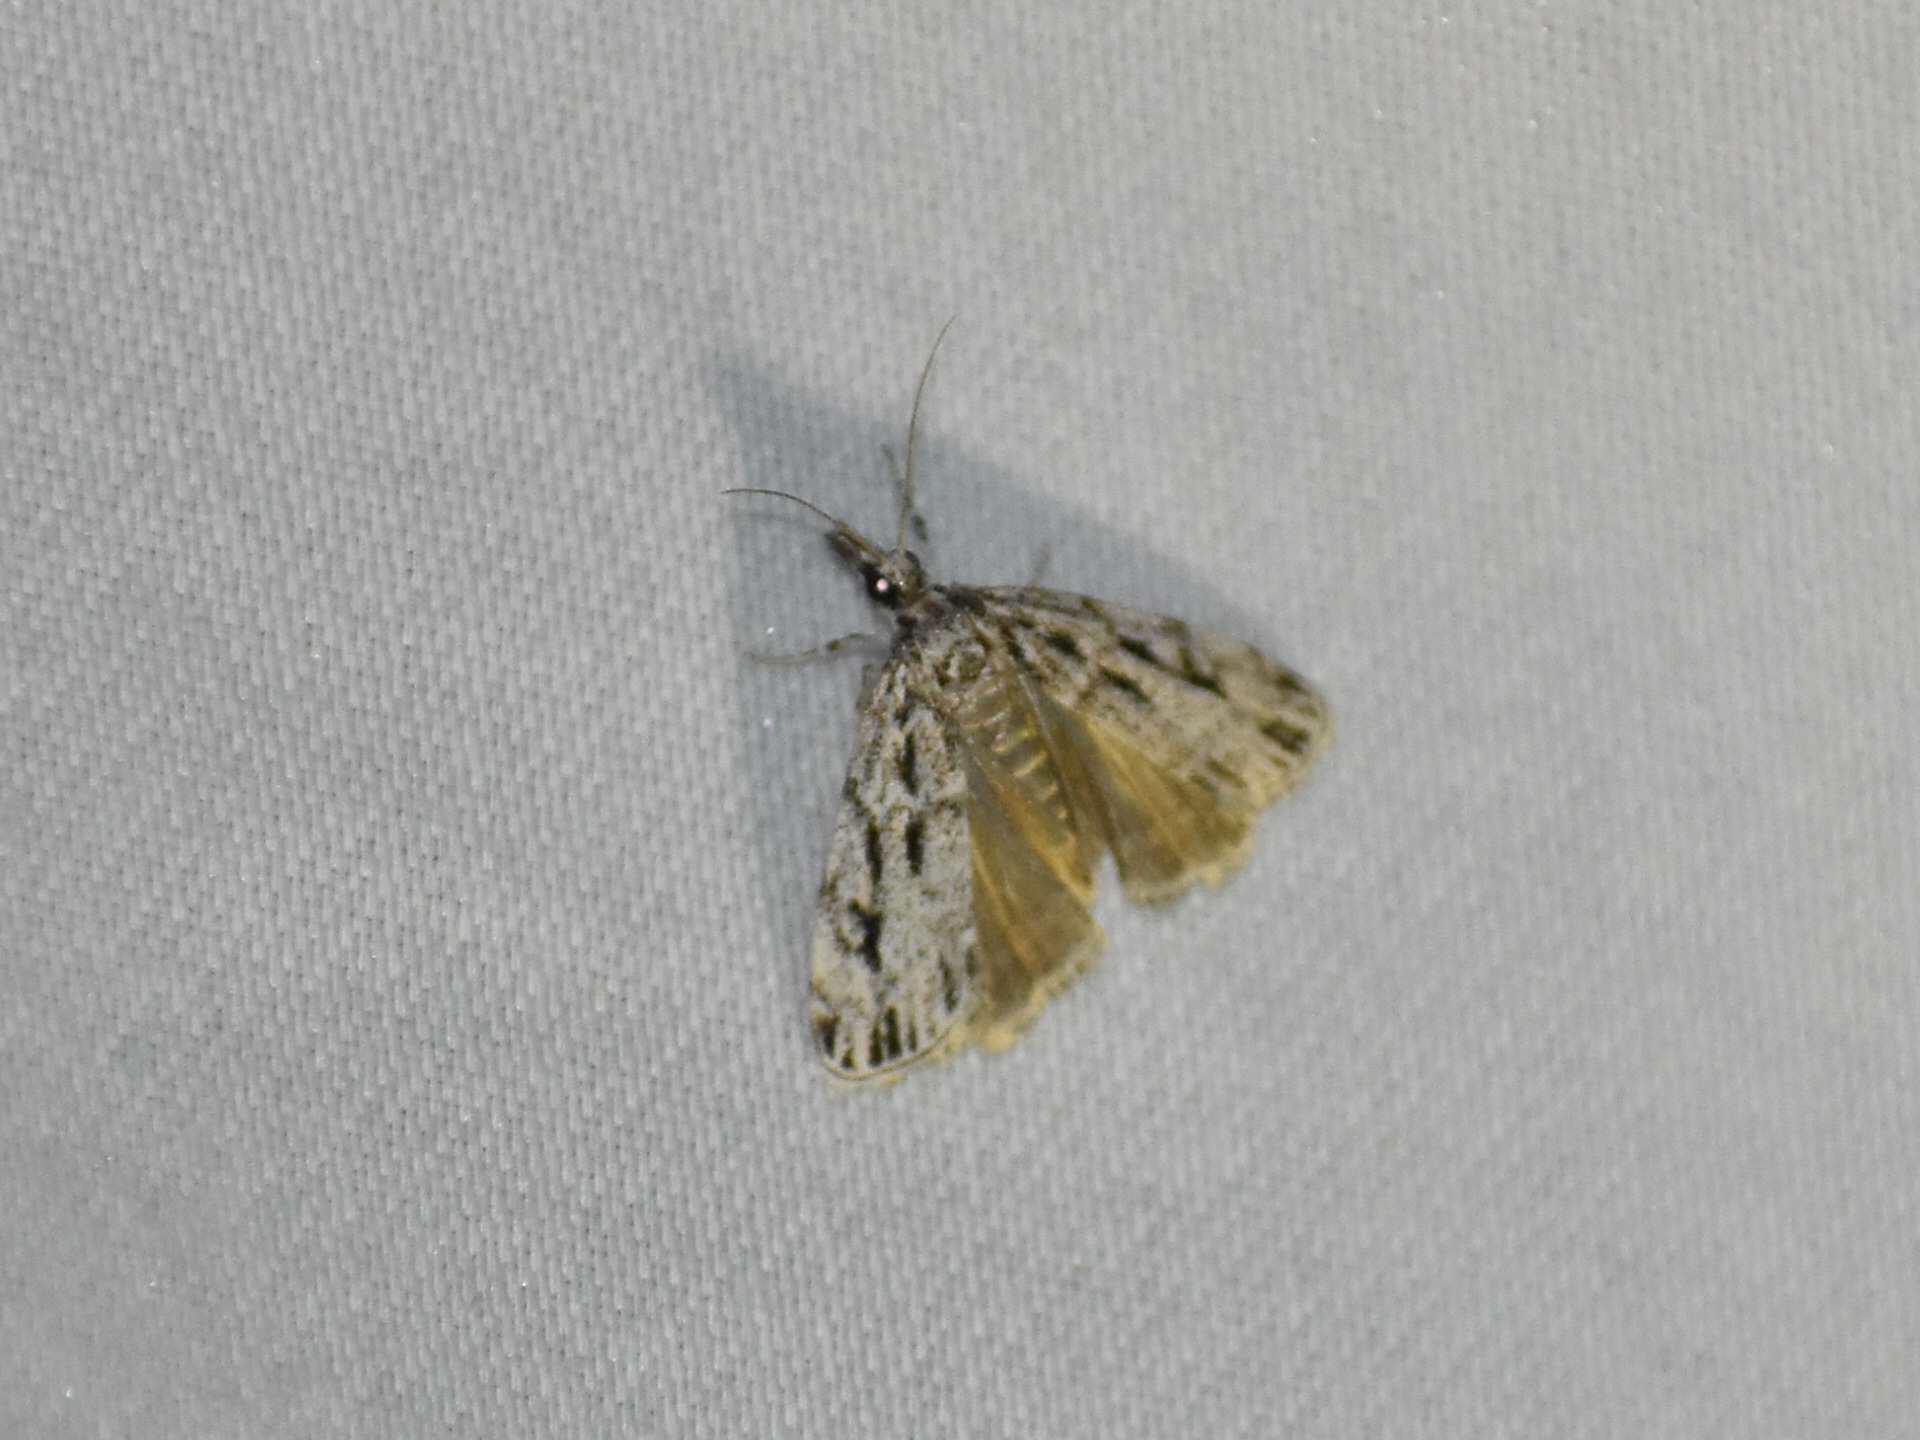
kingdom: Animalia
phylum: Arthropoda
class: Insecta
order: Lepidoptera
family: Crambidae
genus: Eudonia
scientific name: Eudonia strigalis
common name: Striped eudonia moth
